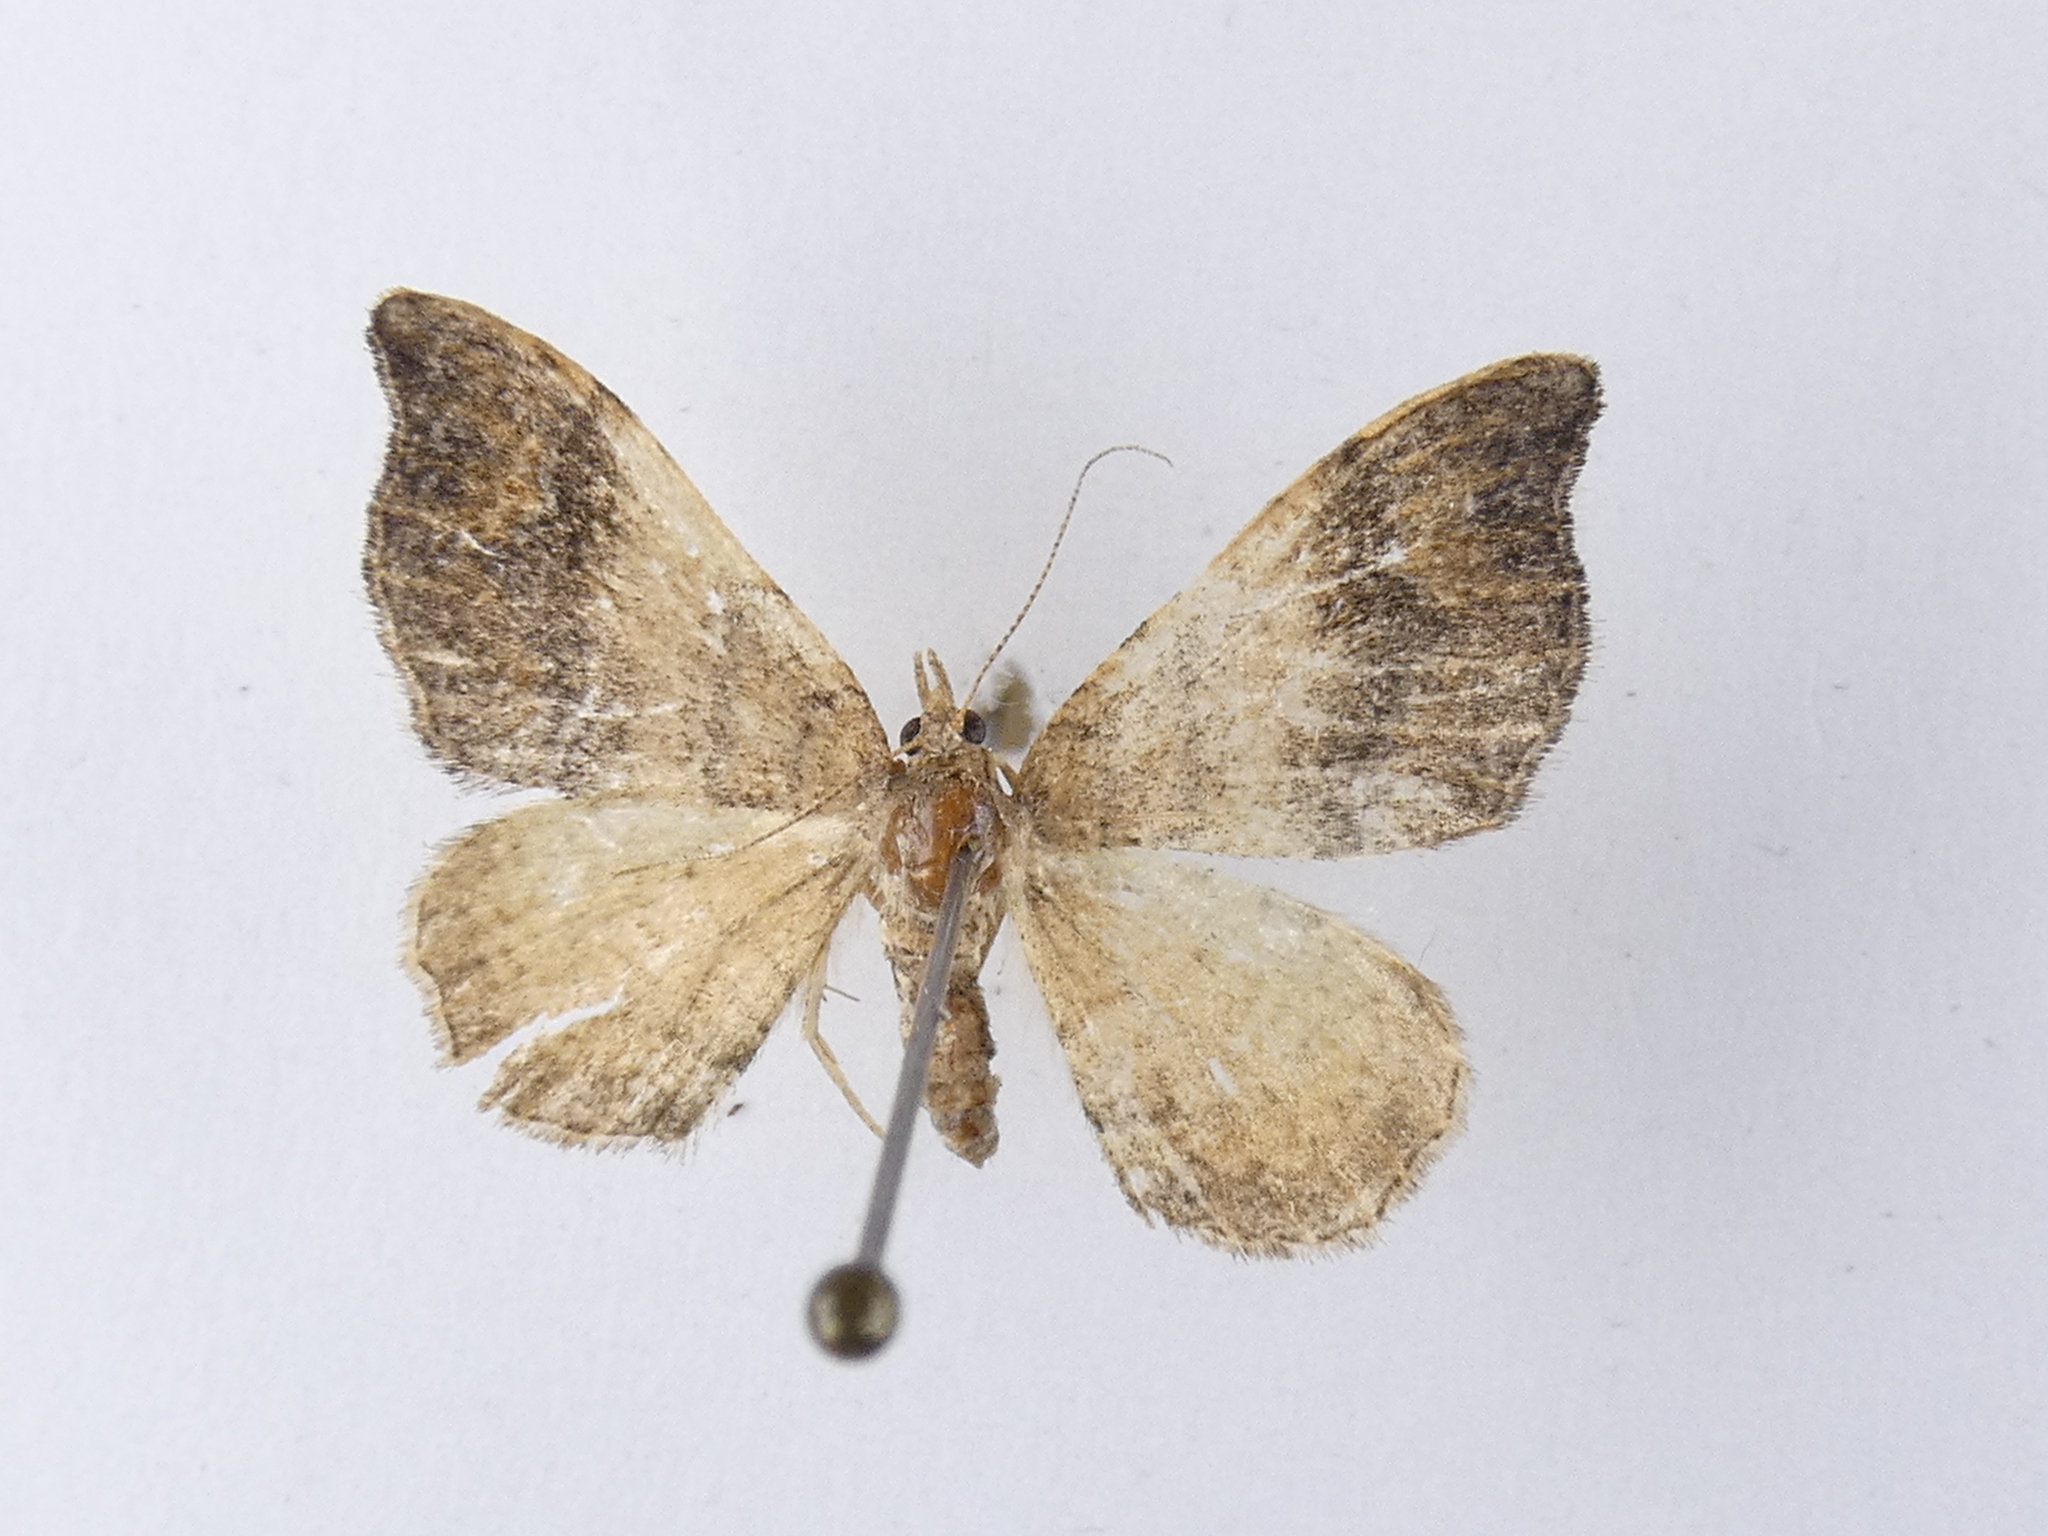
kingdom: Animalia
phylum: Arthropoda
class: Insecta
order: Lepidoptera
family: Geometridae
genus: Homodotis
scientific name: Homodotis megaspilata
